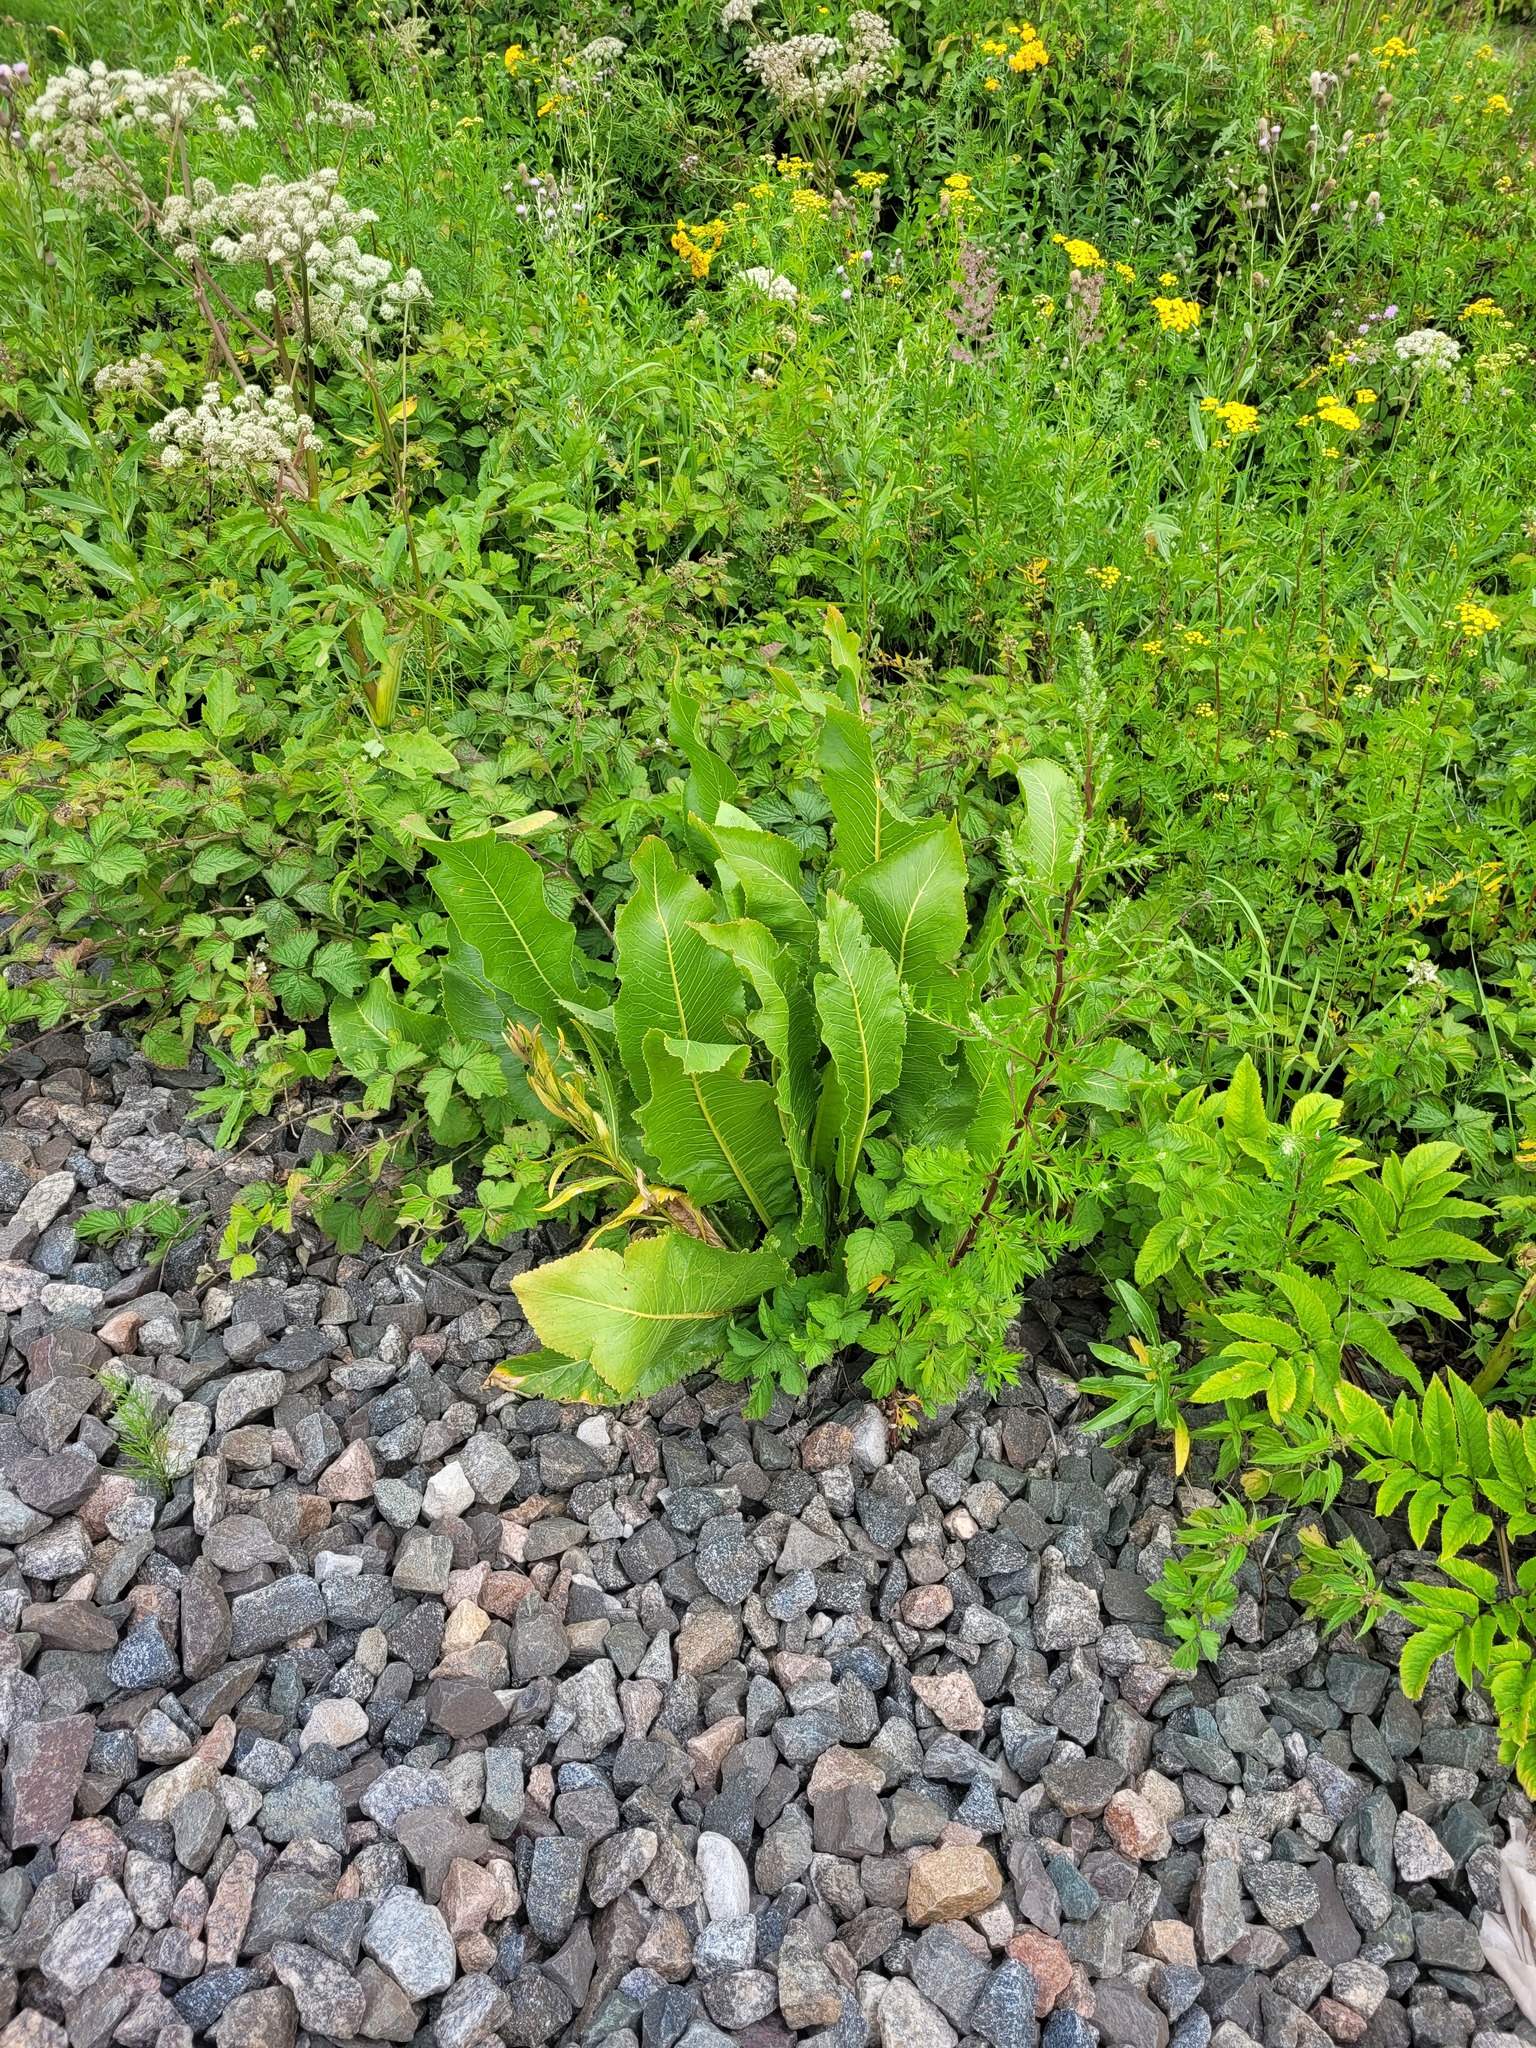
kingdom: Plantae
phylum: Tracheophyta
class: Magnoliopsida
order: Brassicales
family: Brassicaceae
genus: Armoracia
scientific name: Armoracia rusticana
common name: Horseradish
